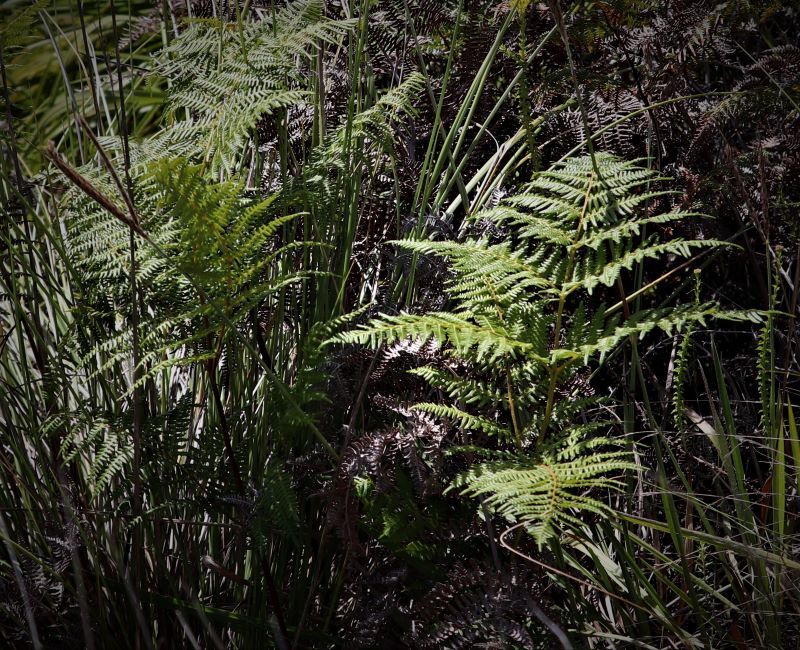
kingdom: Plantae
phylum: Tracheophyta
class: Polypodiopsida
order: Polypodiales
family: Dennstaedtiaceae
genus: Pteridium
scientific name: Pteridium aquilinum
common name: Bracken
